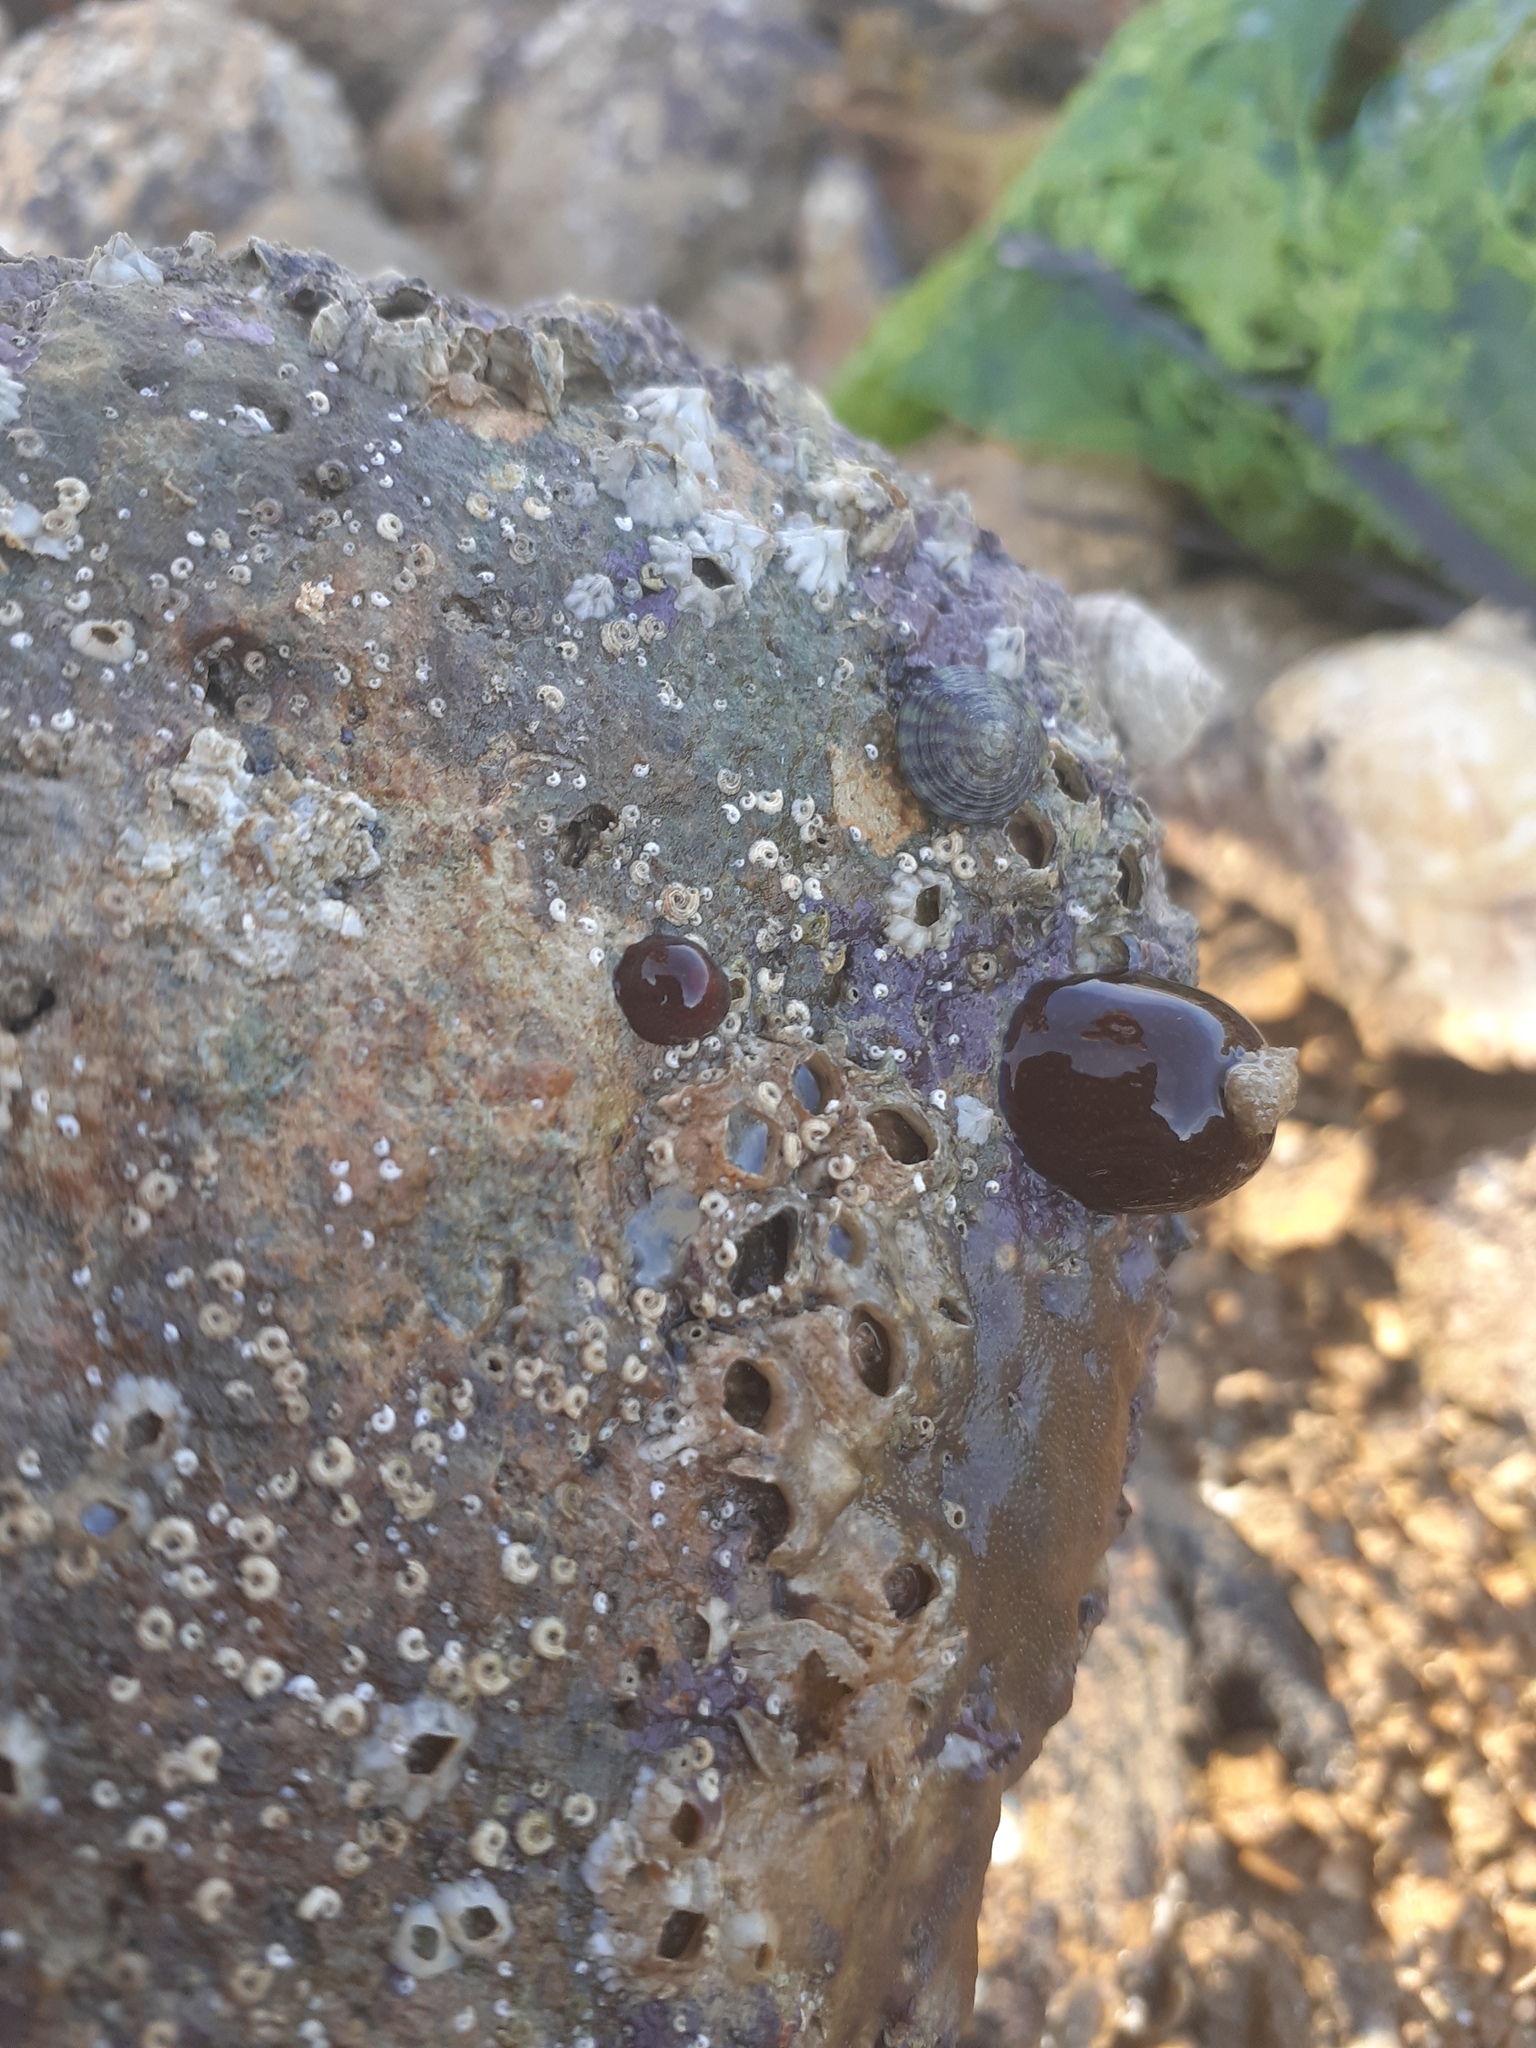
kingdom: Animalia
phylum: Cnidaria
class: Anthozoa
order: Actiniaria
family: Actiniidae
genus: Actinia
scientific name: Actinia equina
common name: Beadlet anemone
